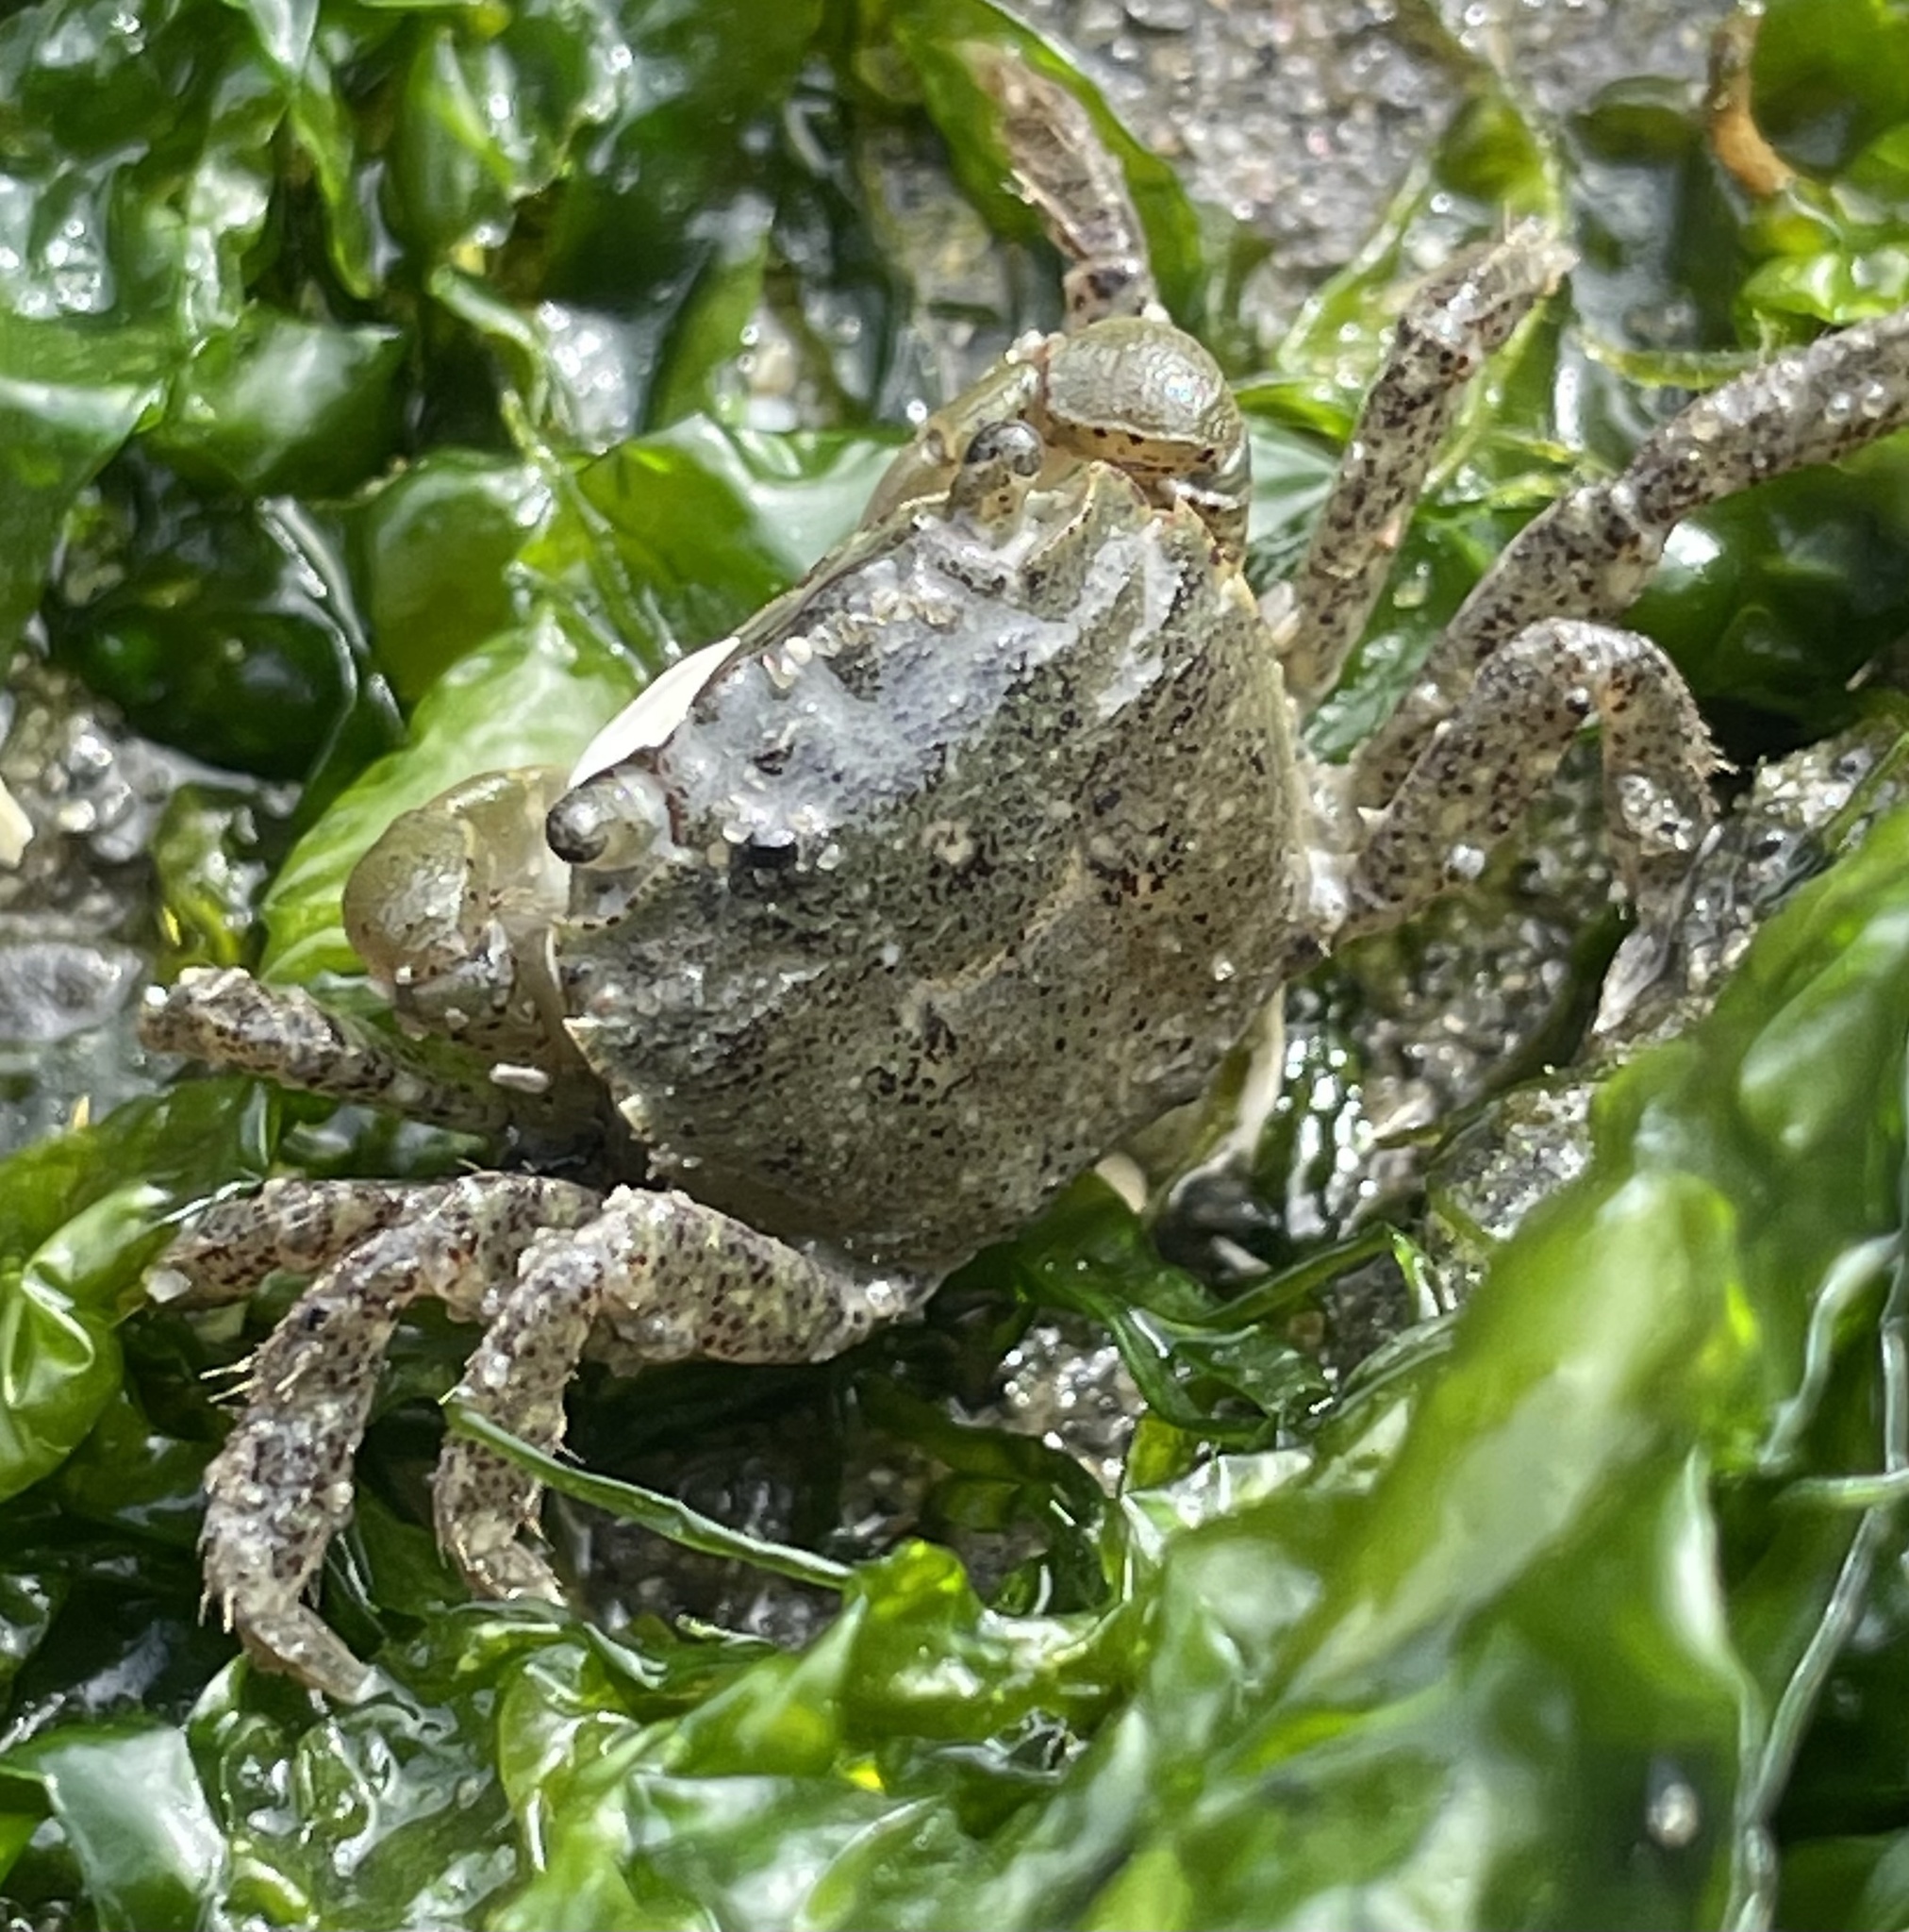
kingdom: Animalia
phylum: Arthropoda
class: Malacostraca
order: Decapoda
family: Varunidae
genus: Hemigrapsus
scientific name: Hemigrapsus oregonensis
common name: Yellow shore crab
